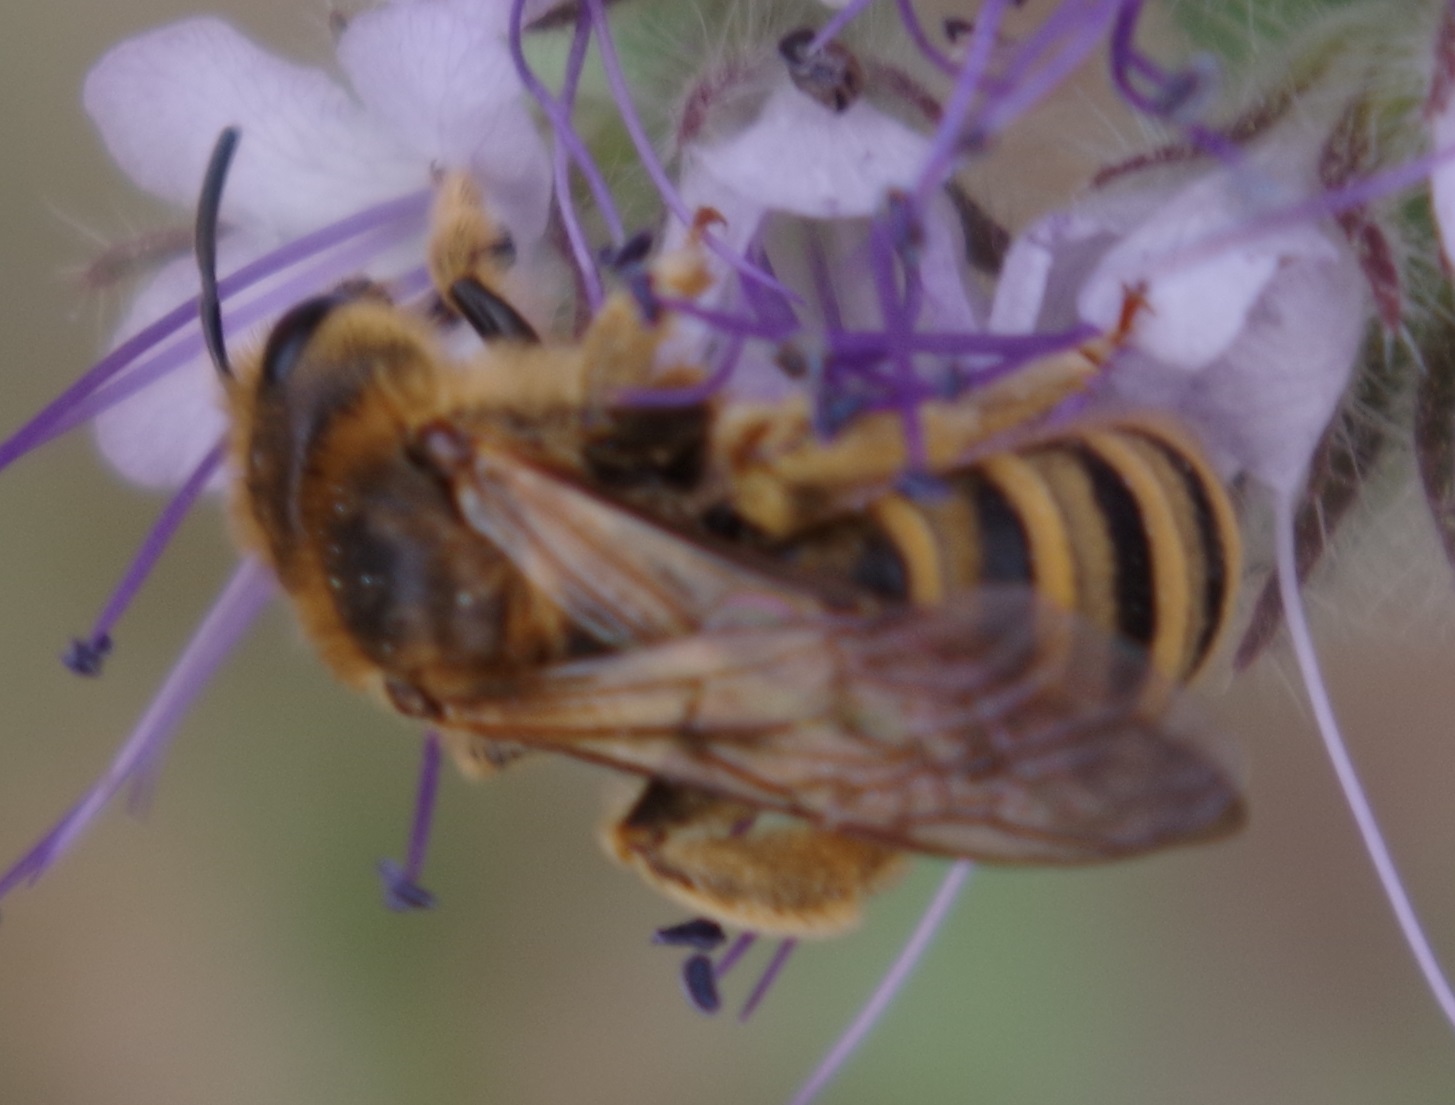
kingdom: Animalia
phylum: Arthropoda
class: Insecta
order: Hymenoptera
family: Halictidae
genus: Halictus
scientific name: Halictus scabiosae
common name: Great banded furrow bee
